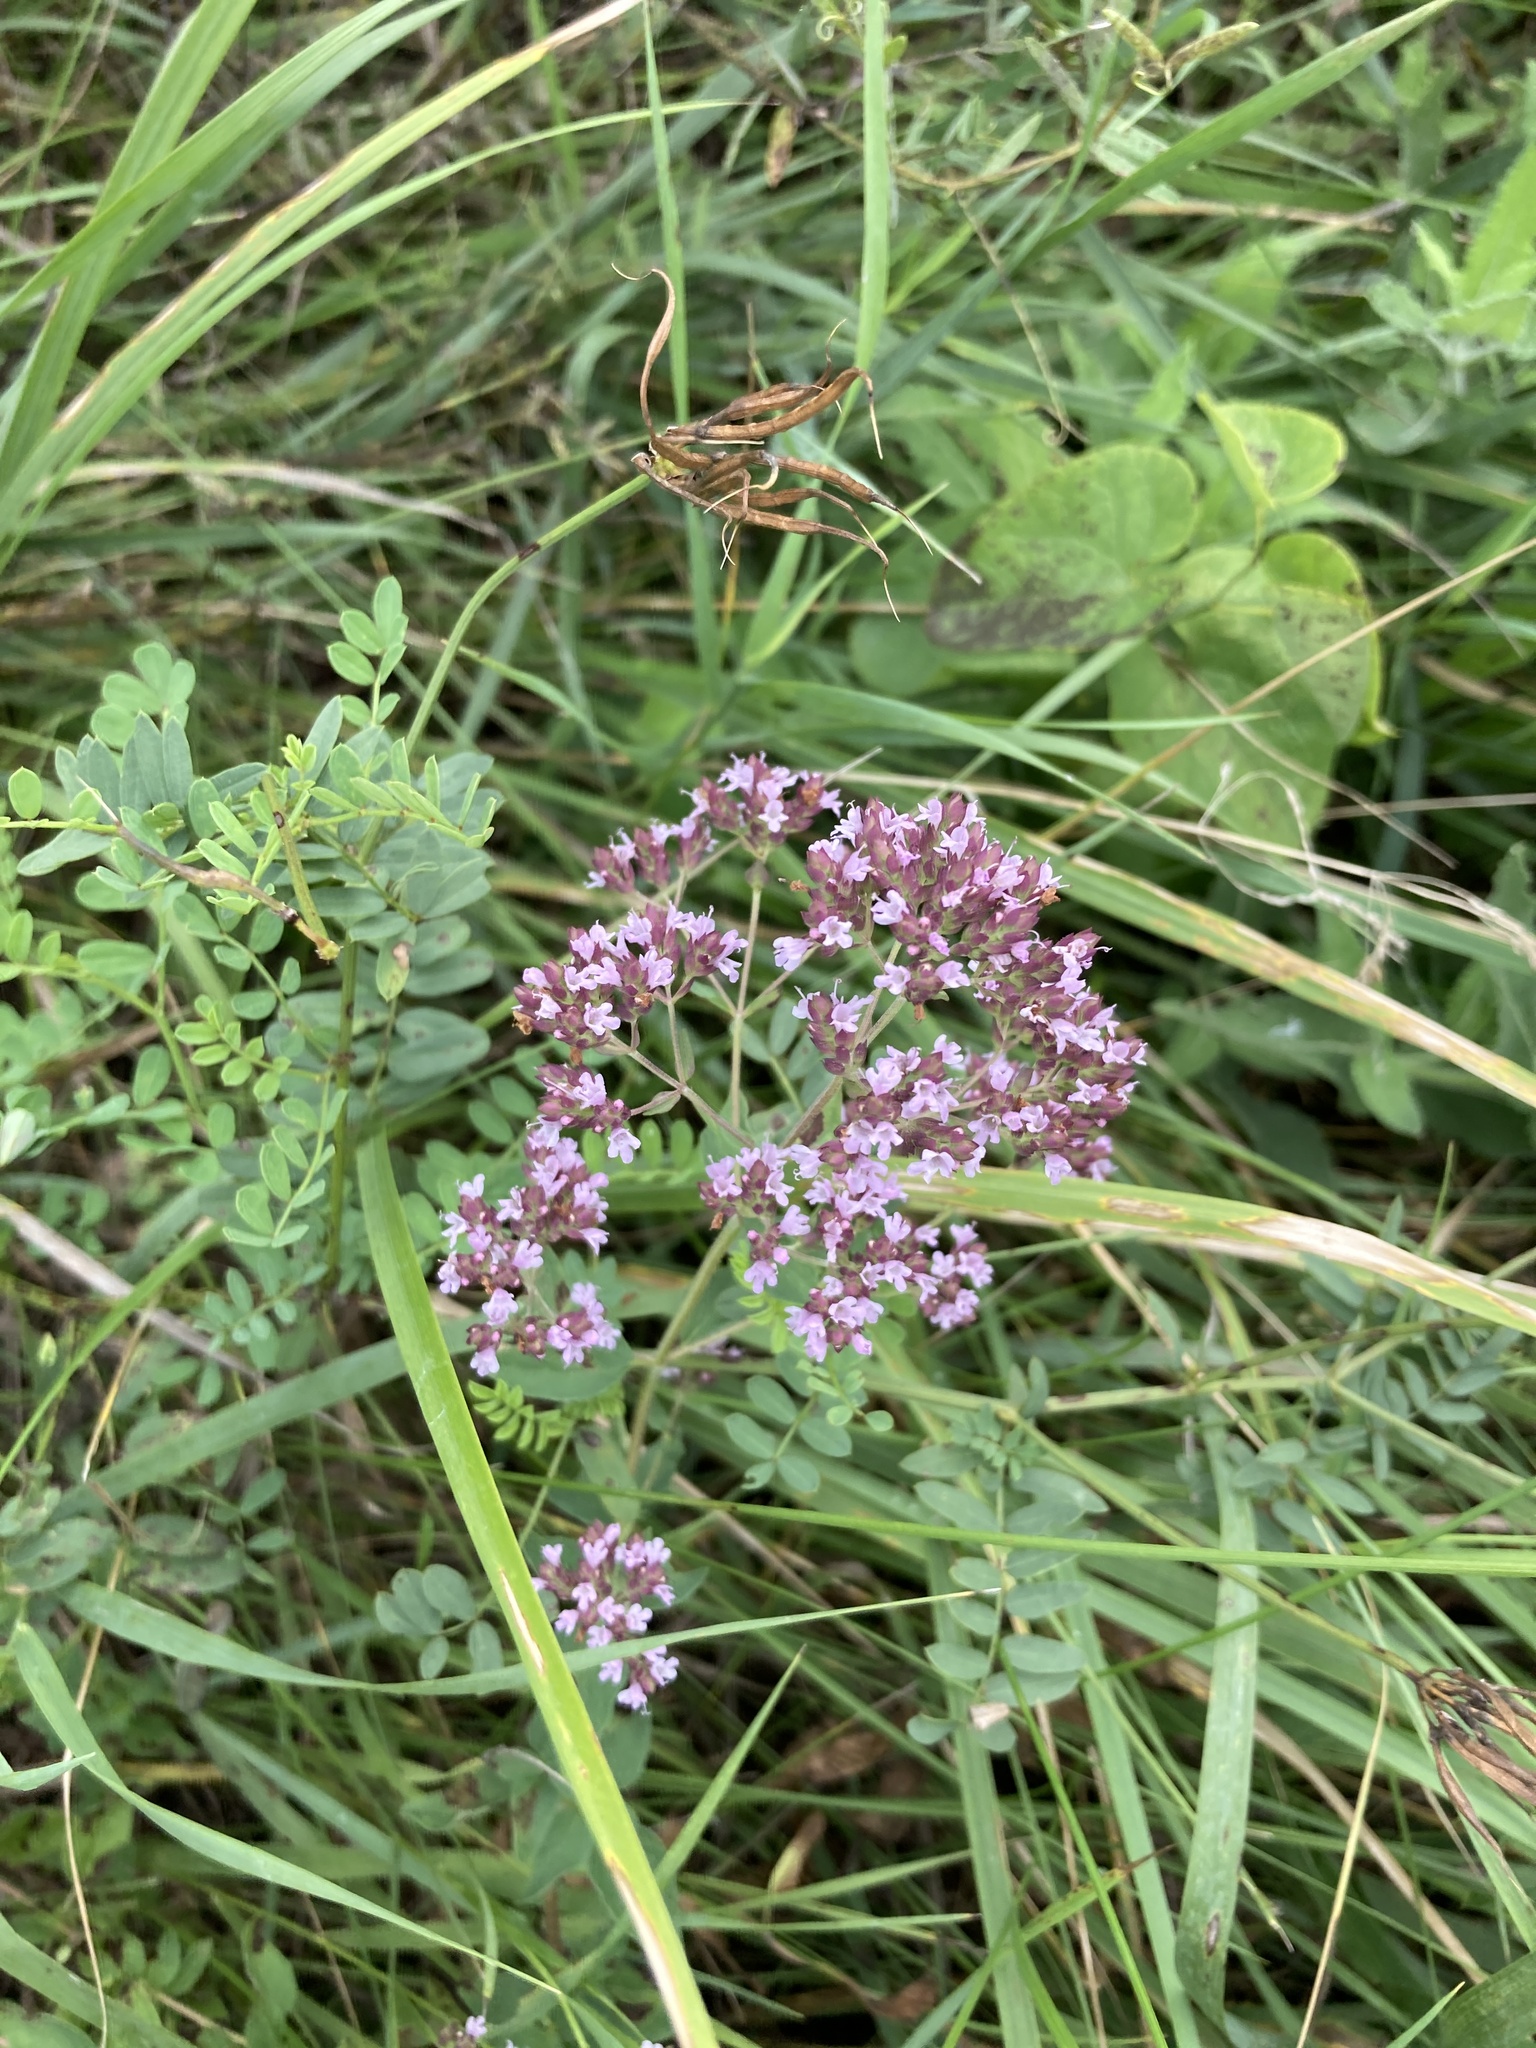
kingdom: Plantae
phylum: Tracheophyta
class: Magnoliopsida
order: Lamiales
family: Lamiaceae
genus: Origanum
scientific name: Origanum vulgare
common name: Wild marjoram
